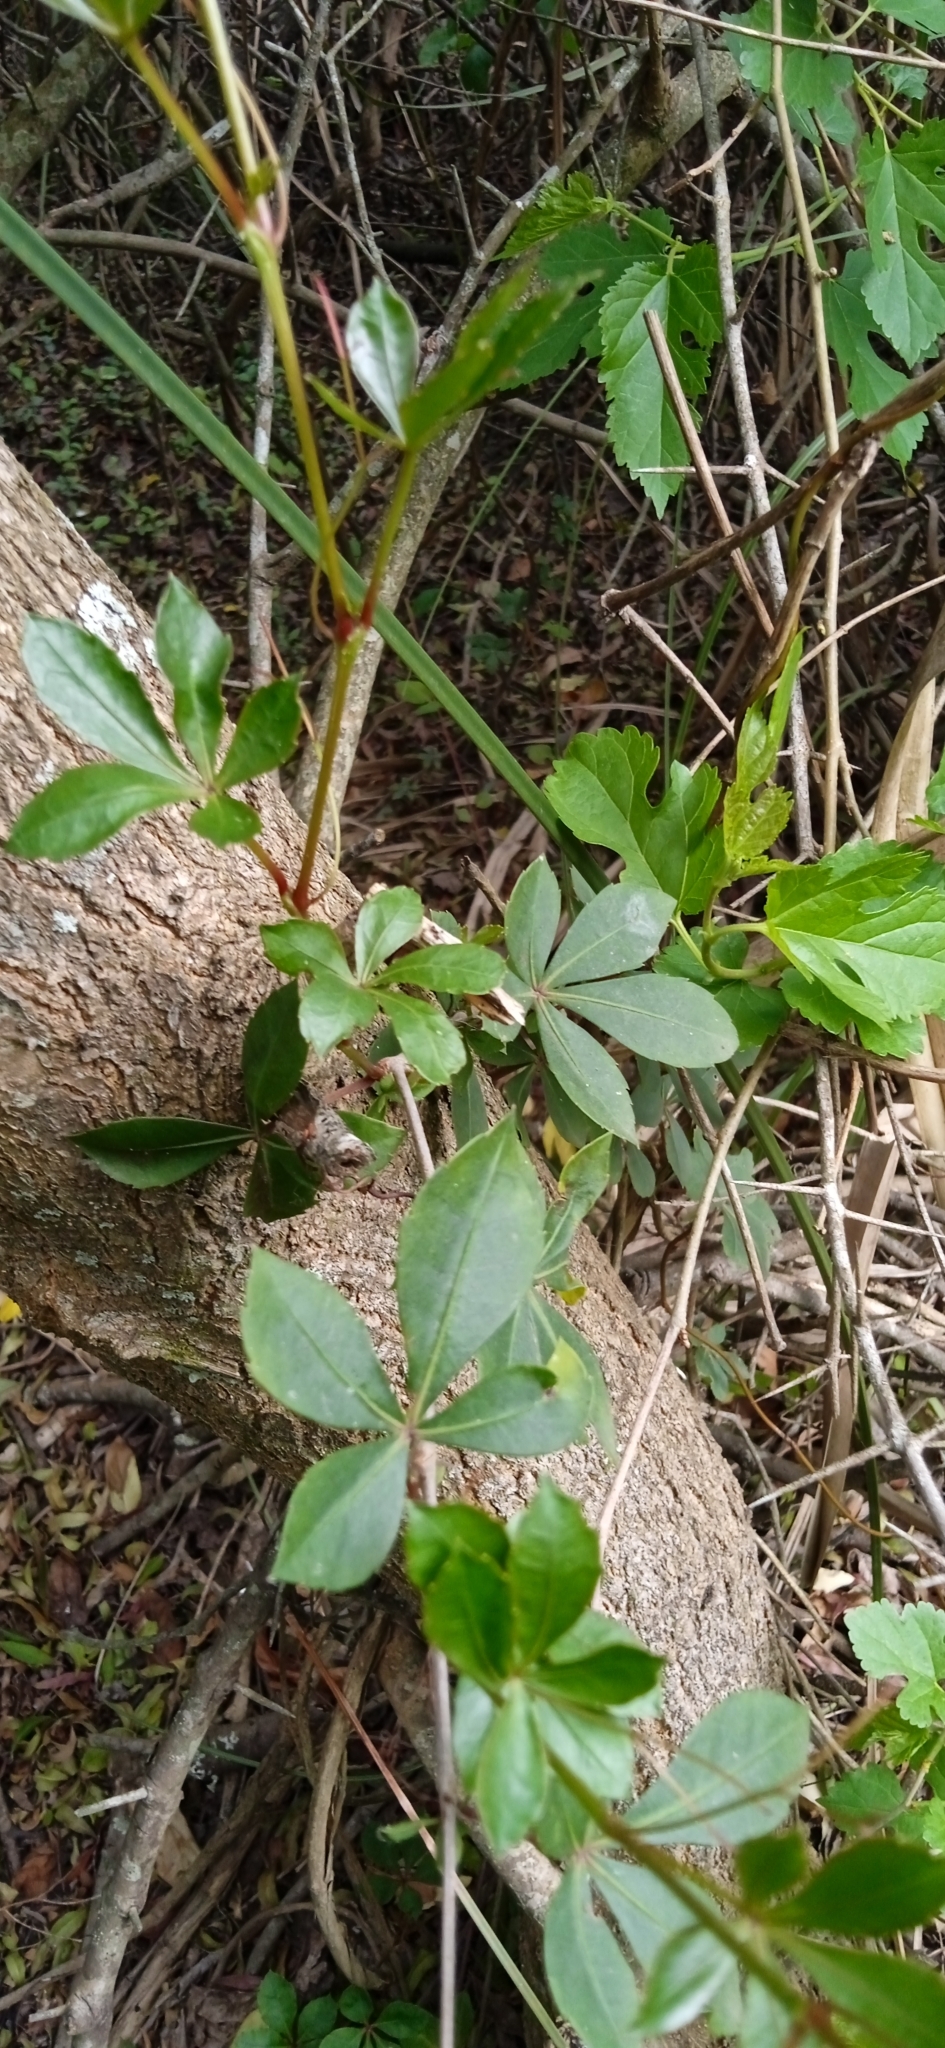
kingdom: Plantae
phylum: Tracheophyta
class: Magnoliopsida
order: Vitales
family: Vitaceae
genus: Clematicissus
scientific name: Clematicissus striata
